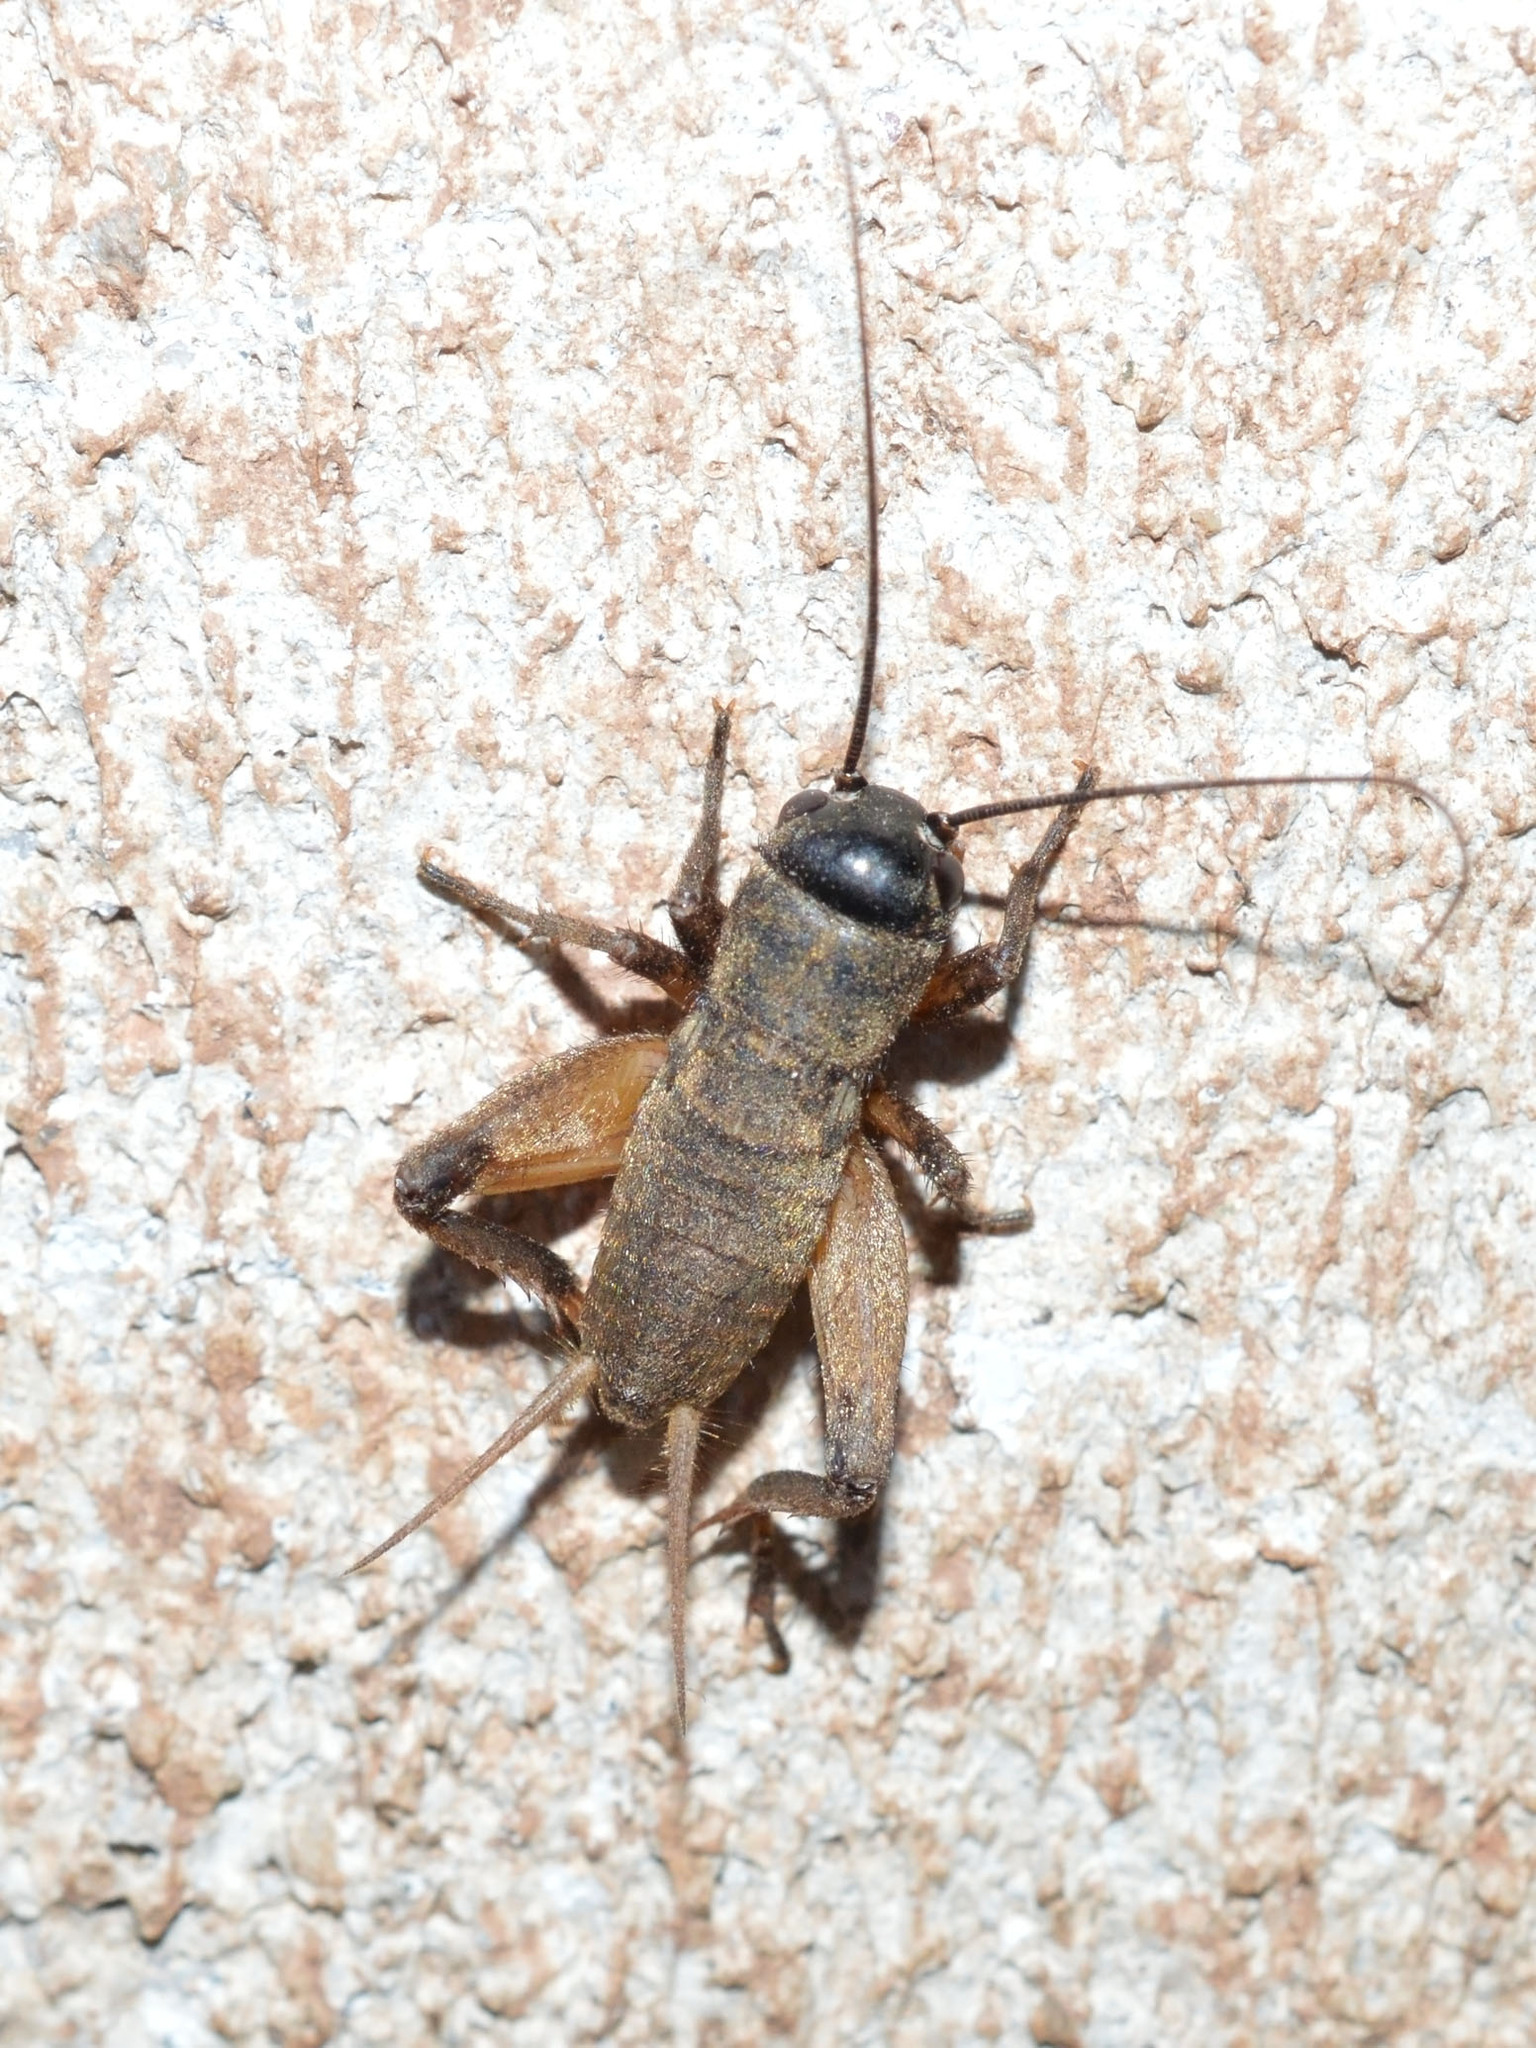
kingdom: Animalia
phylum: Arthropoda
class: Insecta
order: Orthoptera
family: Gryllidae
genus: Melanogryllus
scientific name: Melanogryllus desertus
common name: Desert cricket
